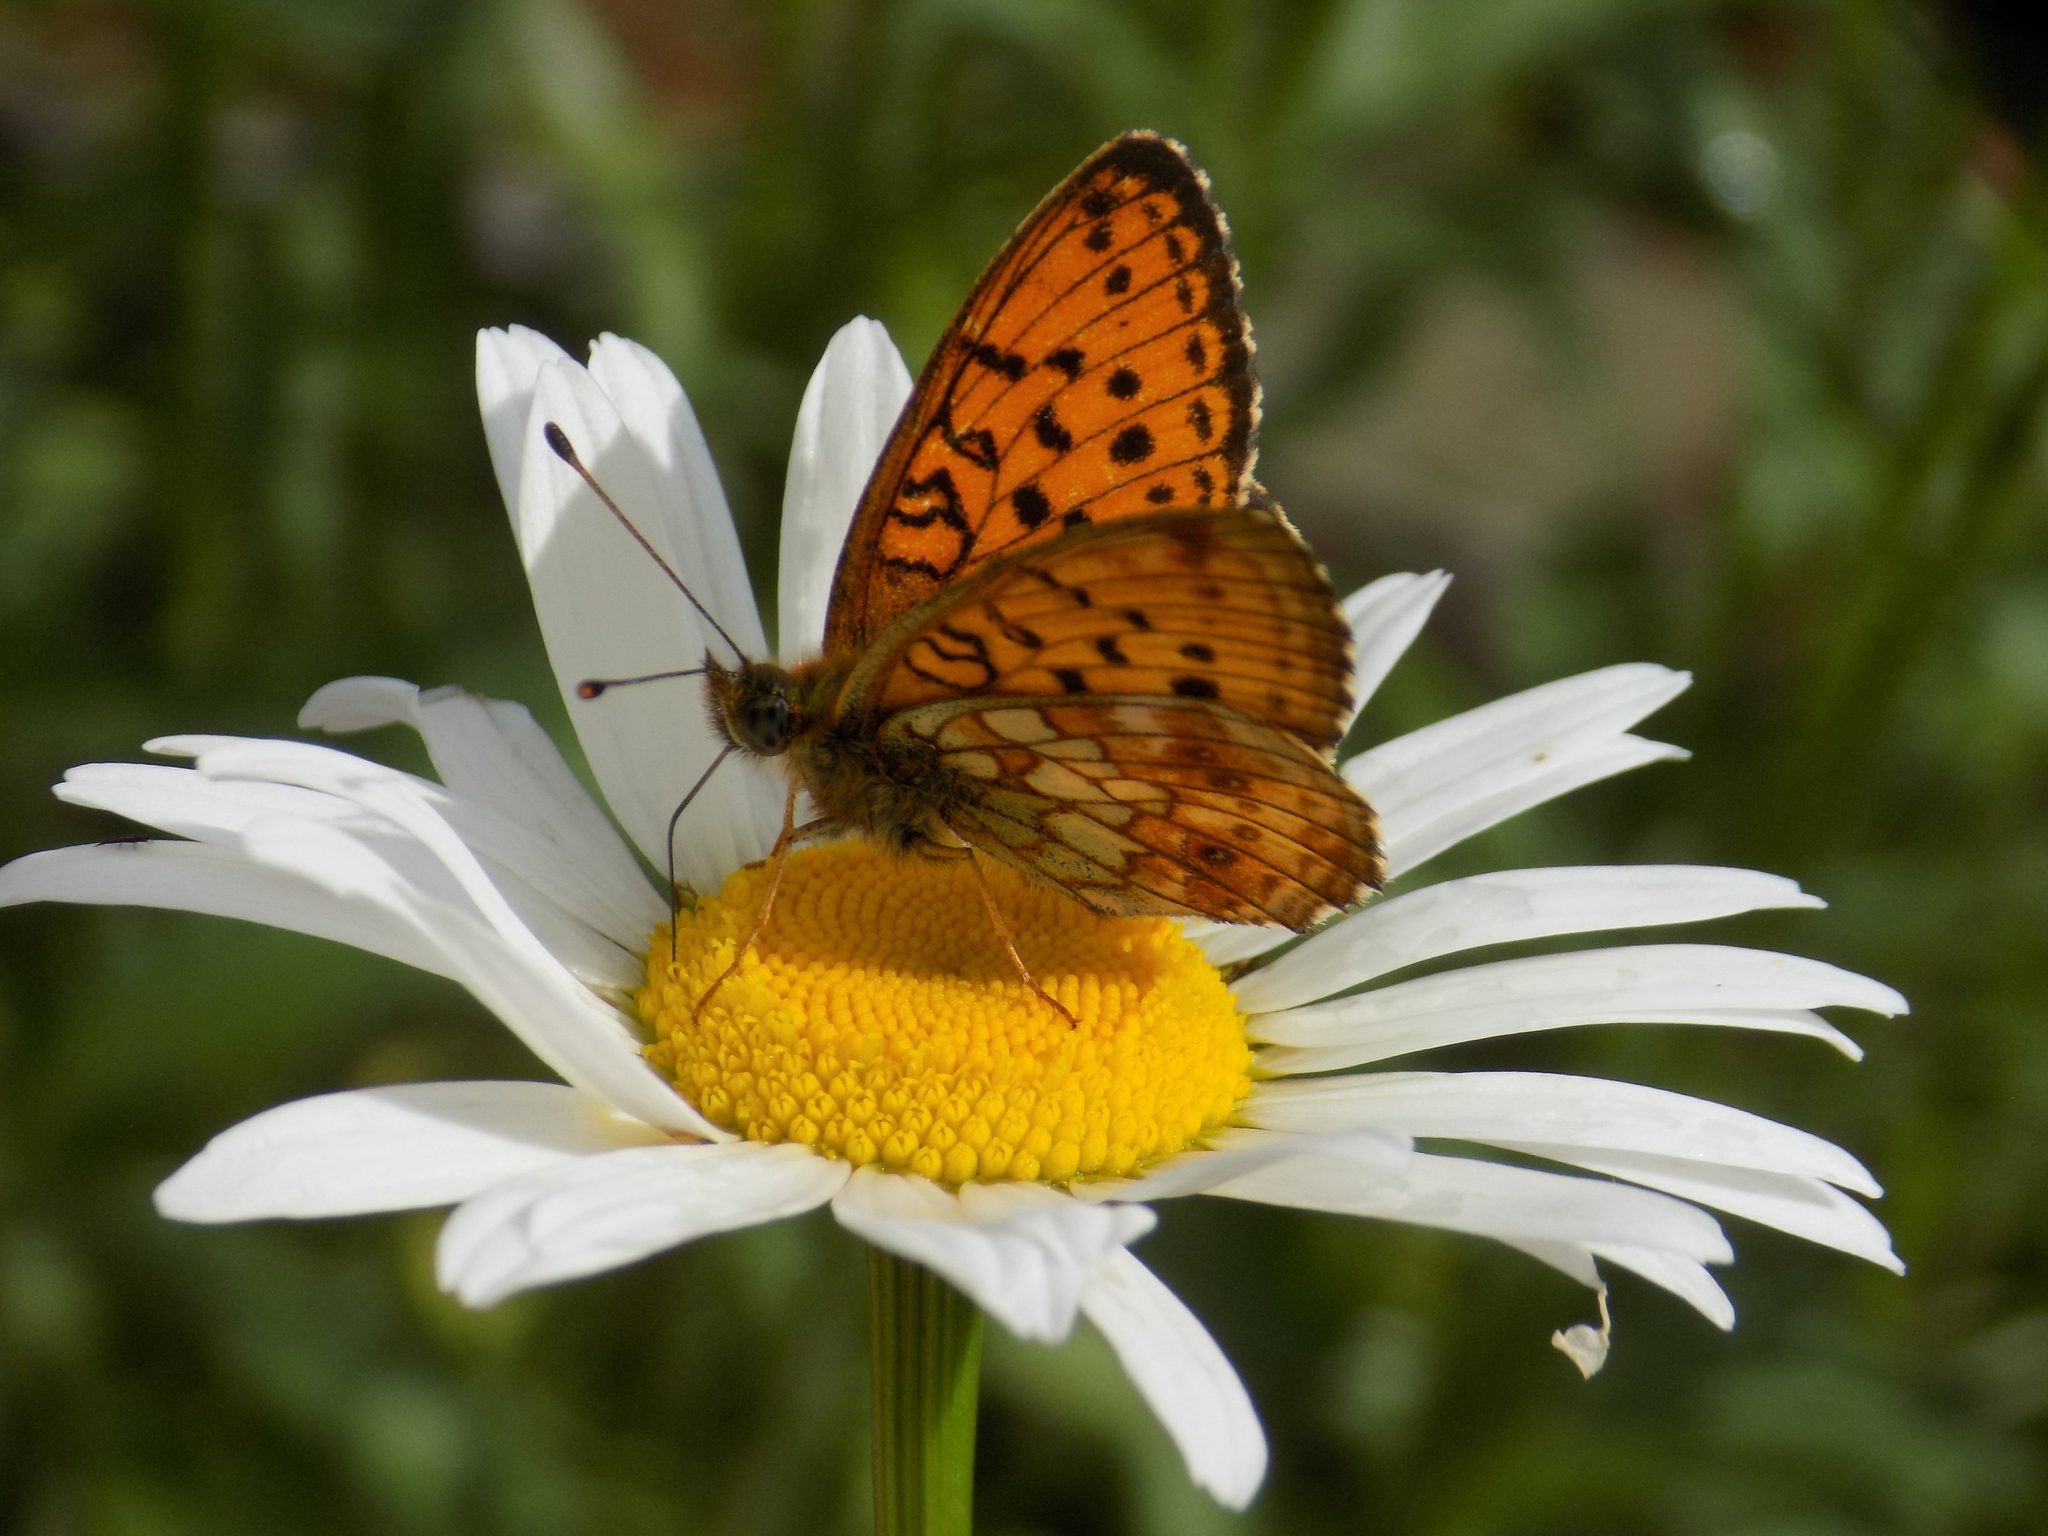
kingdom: Animalia
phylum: Arthropoda
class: Insecta
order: Lepidoptera
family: Nymphalidae
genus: Brenthis
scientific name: Brenthis ino
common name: Lesser marbled fritillary
